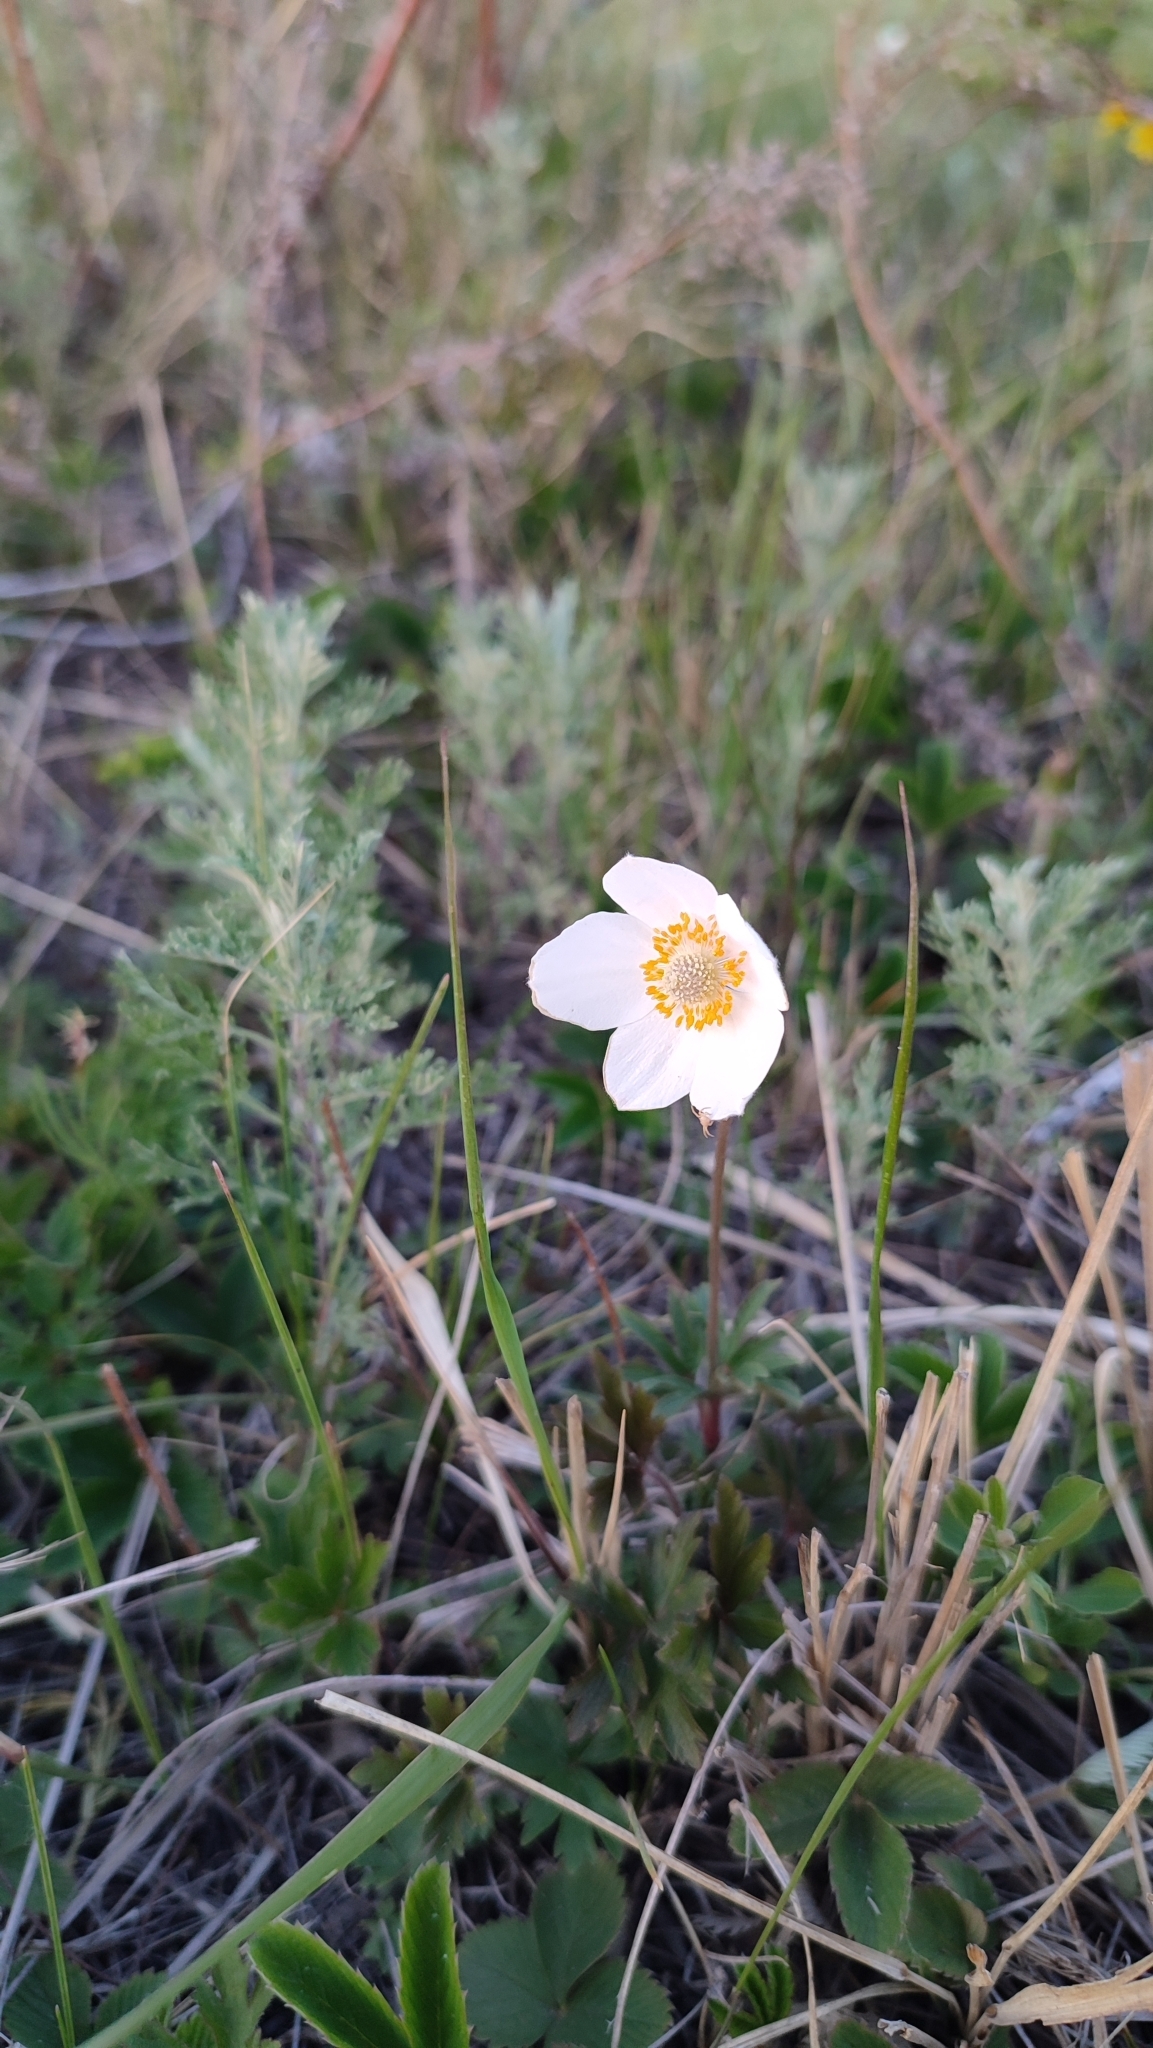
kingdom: Plantae
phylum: Tracheophyta
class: Magnoliopsida
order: Ranunculales
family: Ranunculaceae
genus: Anemone
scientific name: Anemone sylvestris
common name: Snowdrop anemone
